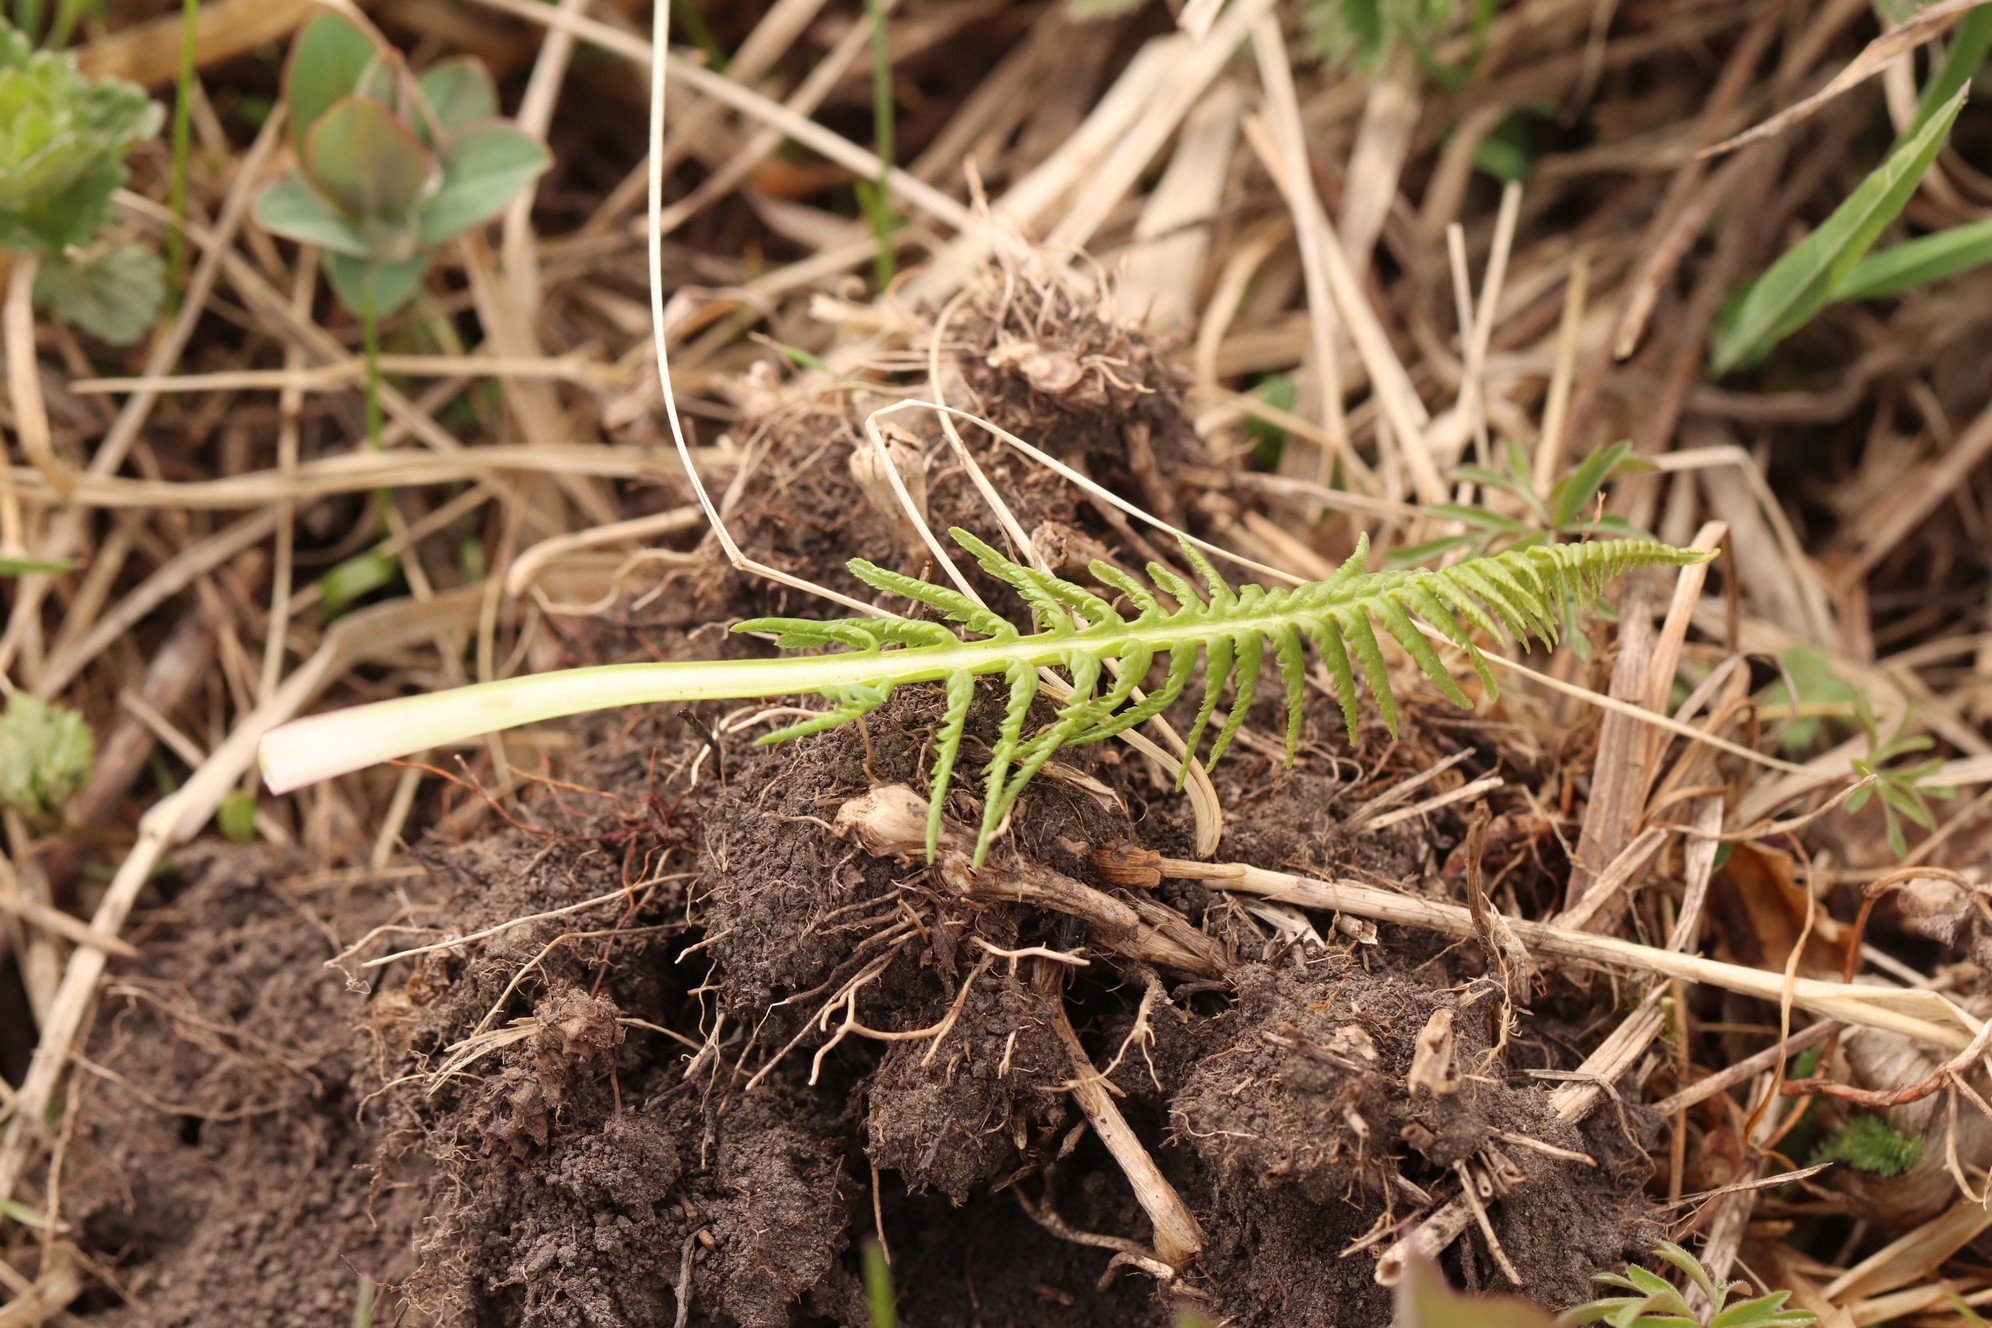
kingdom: Plantae
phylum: Tracheophyta
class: Magnoliopsida
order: Lamiales
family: Orobanchaceae
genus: Pedicularis
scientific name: Pedicularis incarnata
